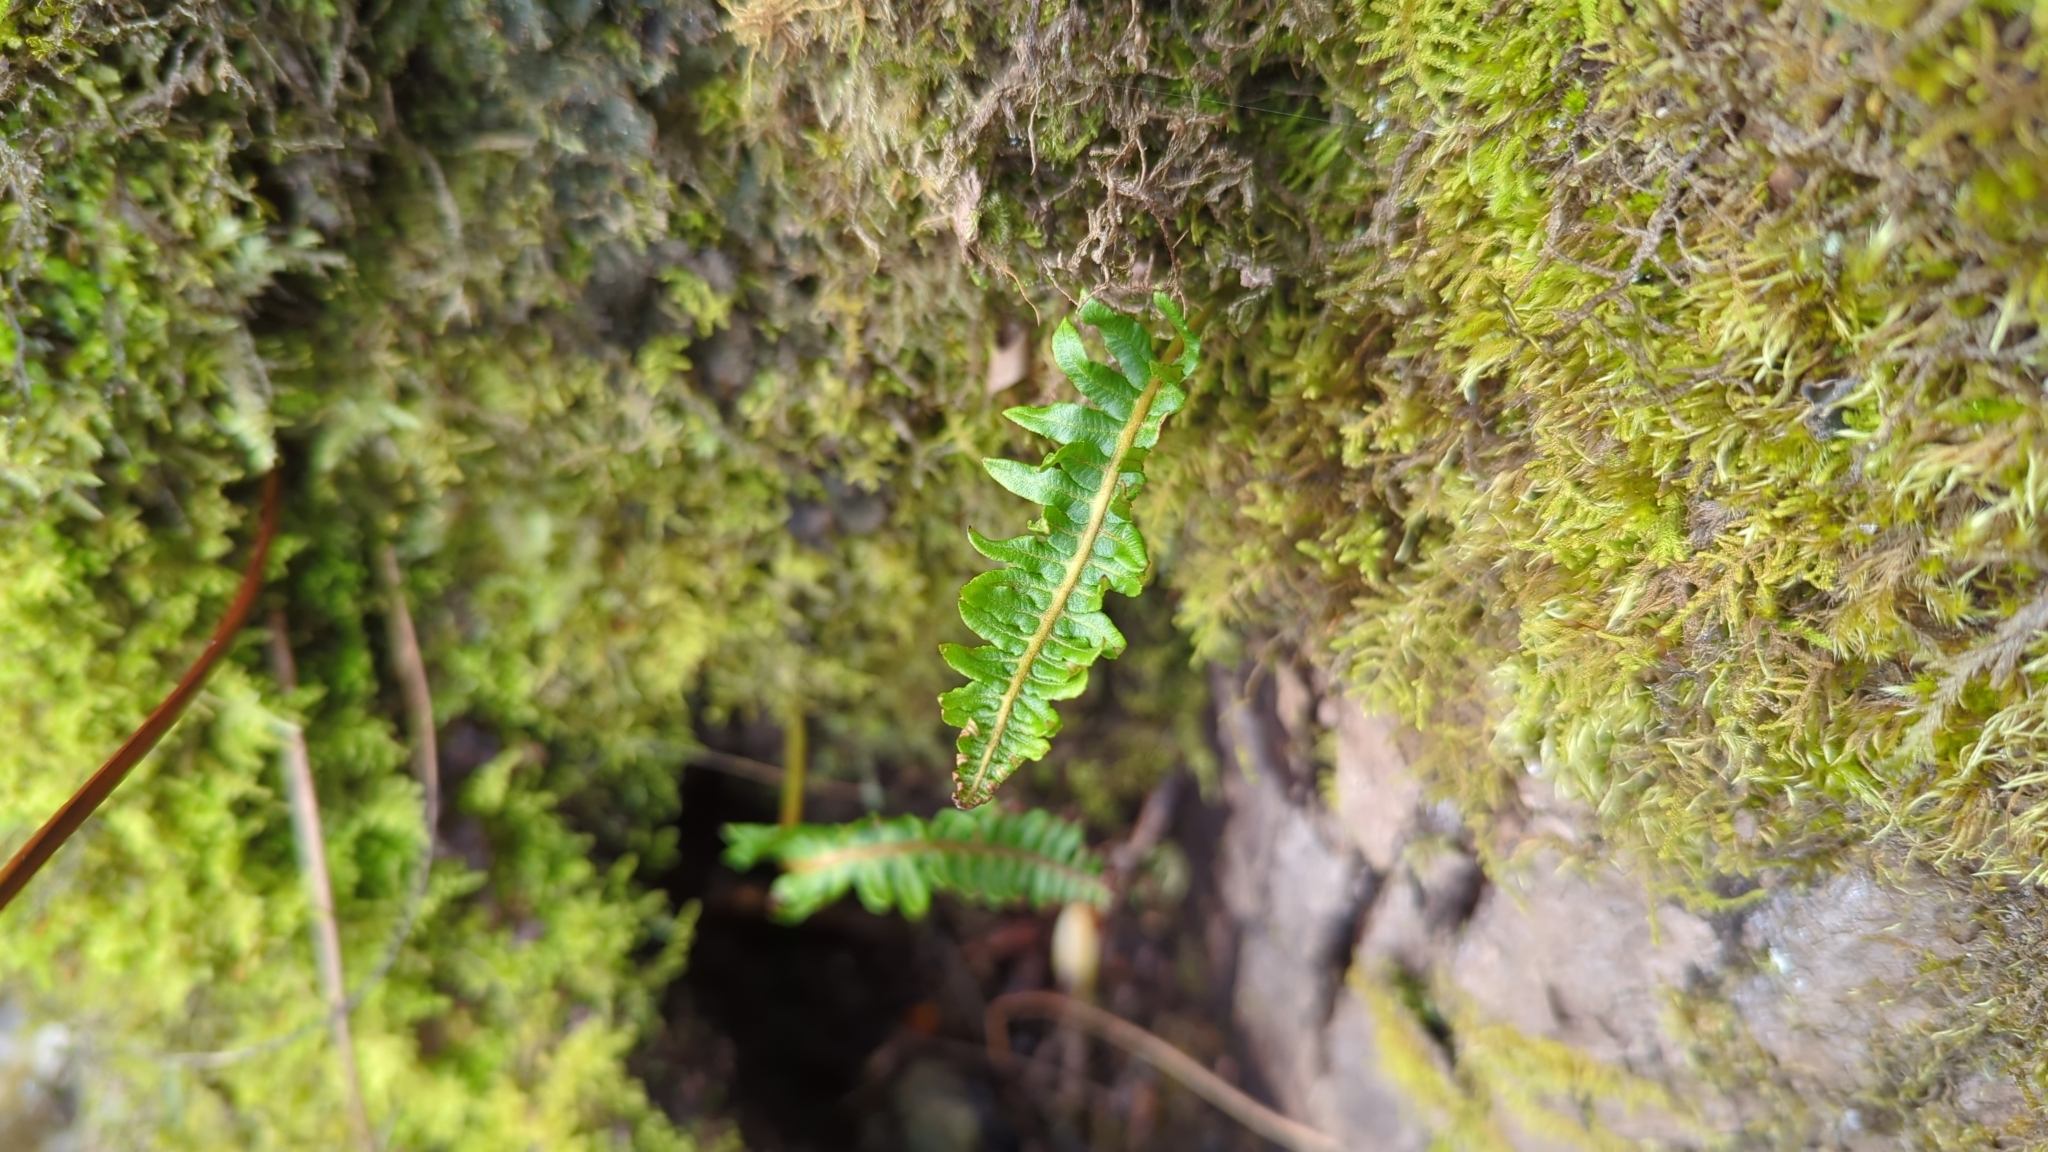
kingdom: Plantae
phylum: Tracheophyta
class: Polypodiopsida
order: Polypodiales
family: Polypodiaceae
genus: Polypodium
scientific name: Polypodium glycyrrhiza
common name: Licorice fern
